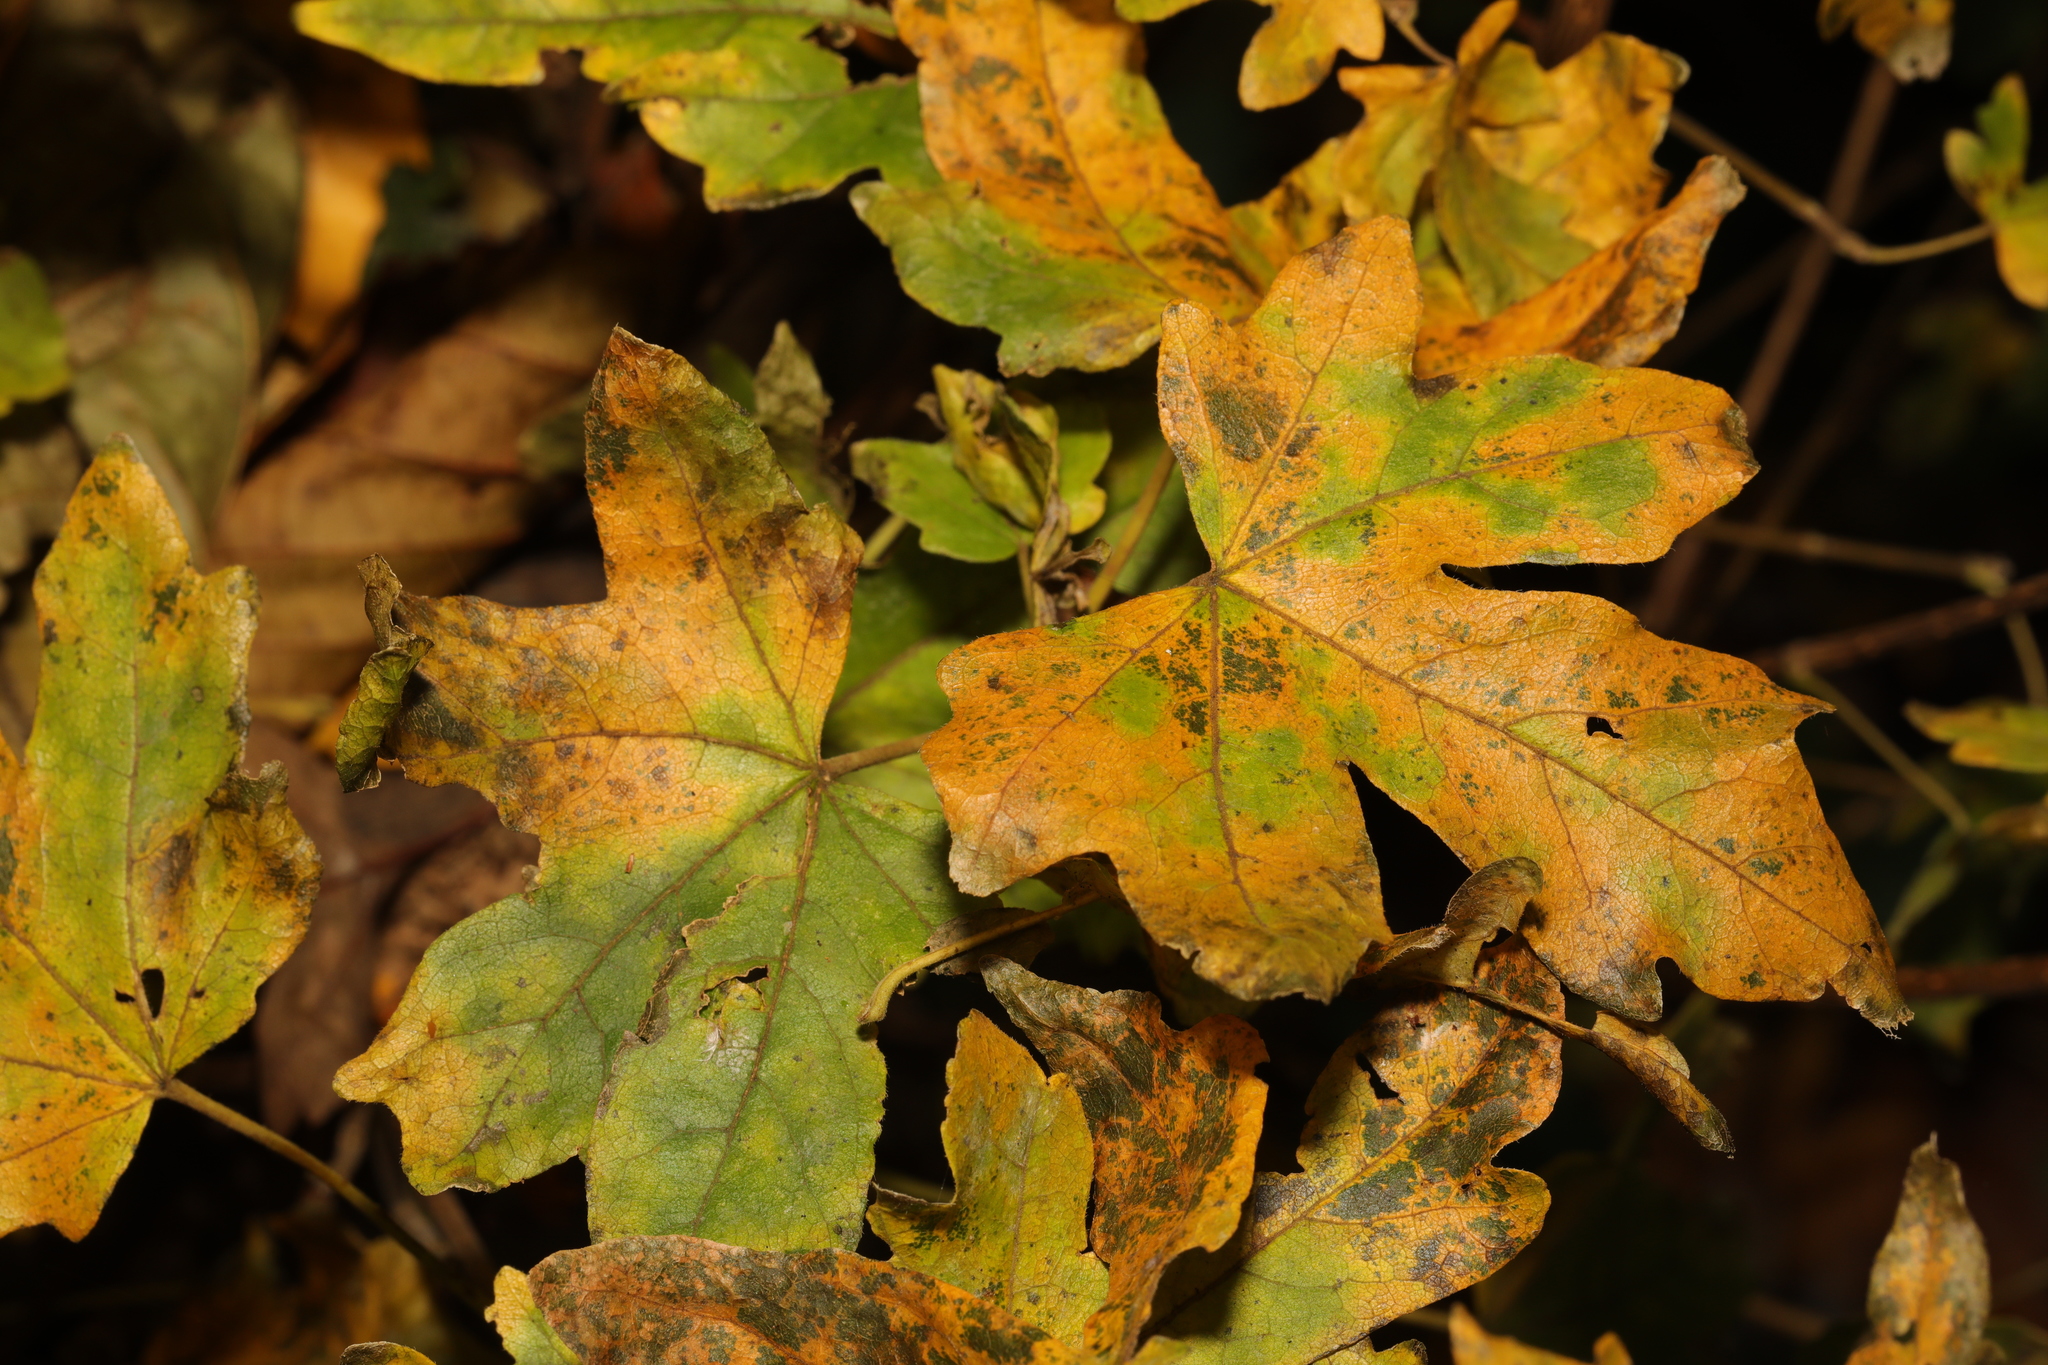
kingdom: Plantae
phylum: Tracheophyta
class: Magnoliopsida
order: Sapindales
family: Sapindaceae
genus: Acer
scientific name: Acer campestre
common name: Field maple
